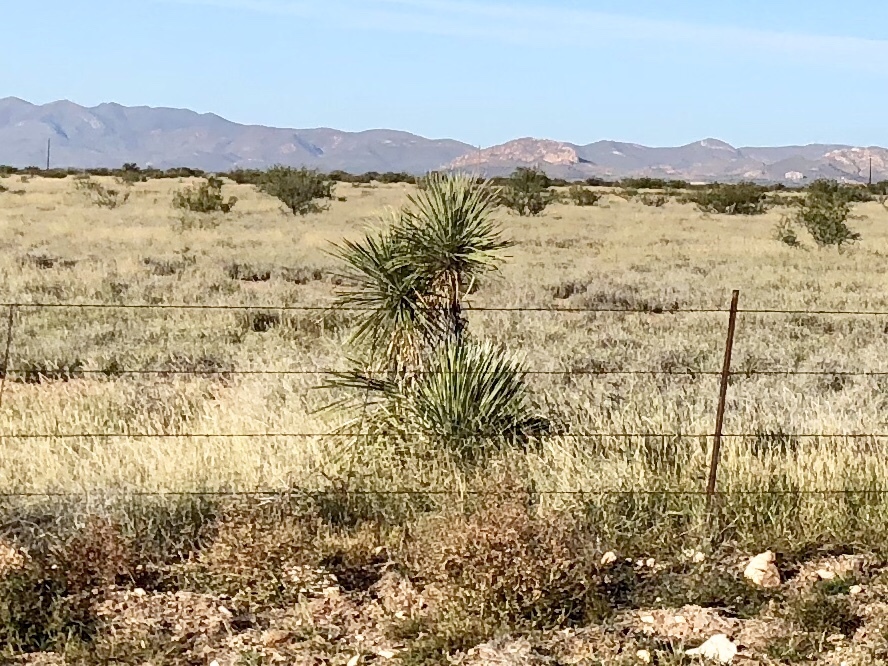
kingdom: Plantae
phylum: Tracheophyta
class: Liliopsida
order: Asparagales
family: Asparagaceae
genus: Yucca
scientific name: Yucca elata
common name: Palmella
